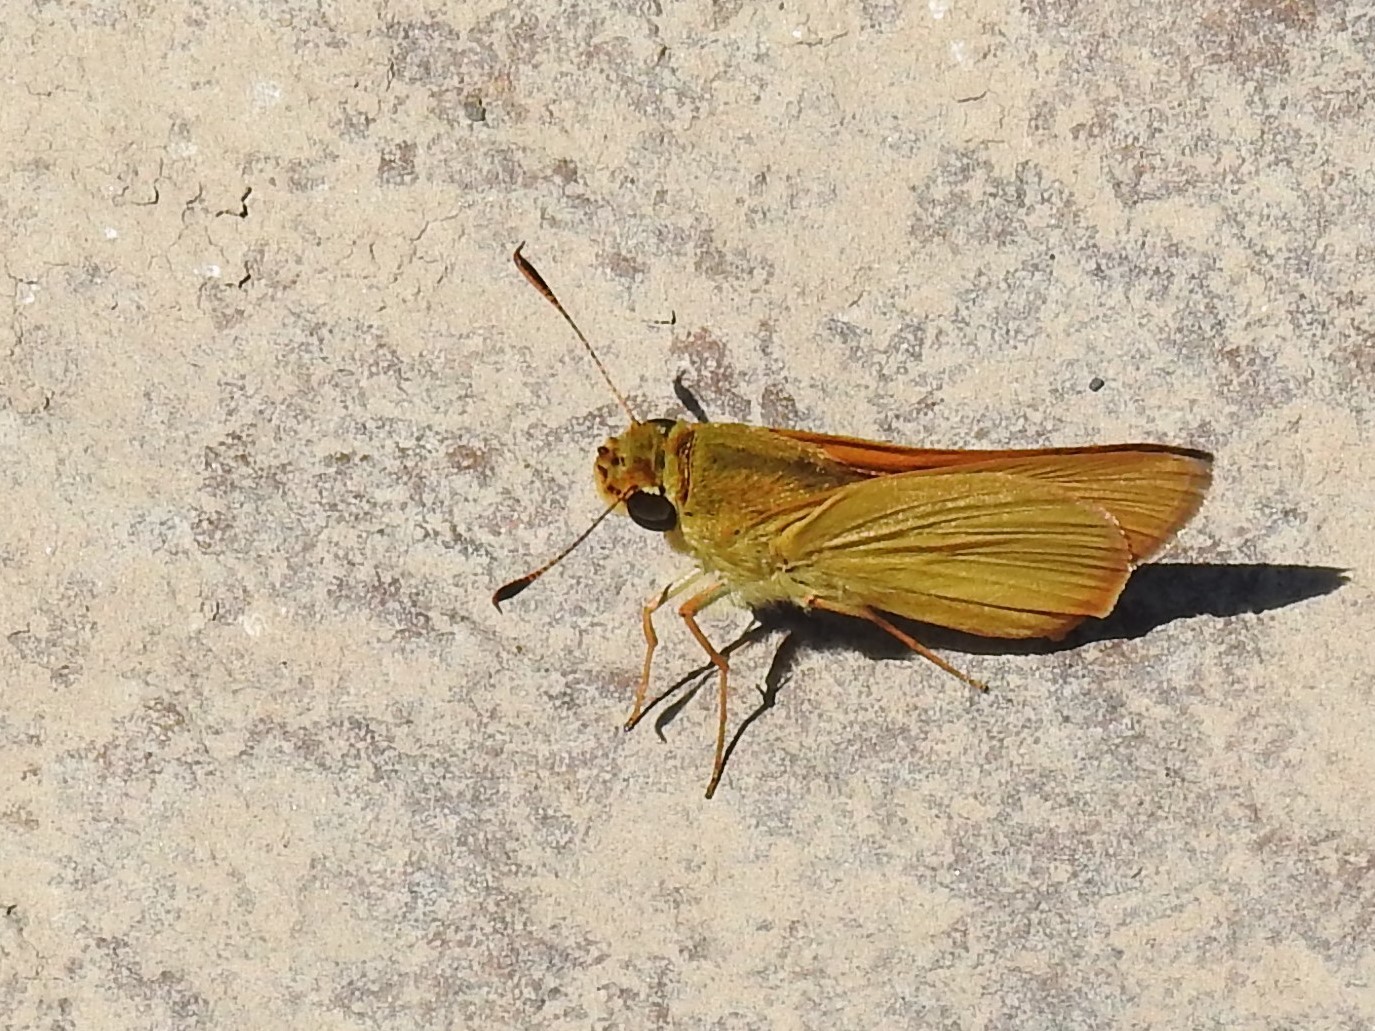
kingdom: Animalia
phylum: Arthropoda
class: Insecta
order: Lepidoptera
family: Hesperiidae
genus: Atrytone
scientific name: Atrytone delaware
